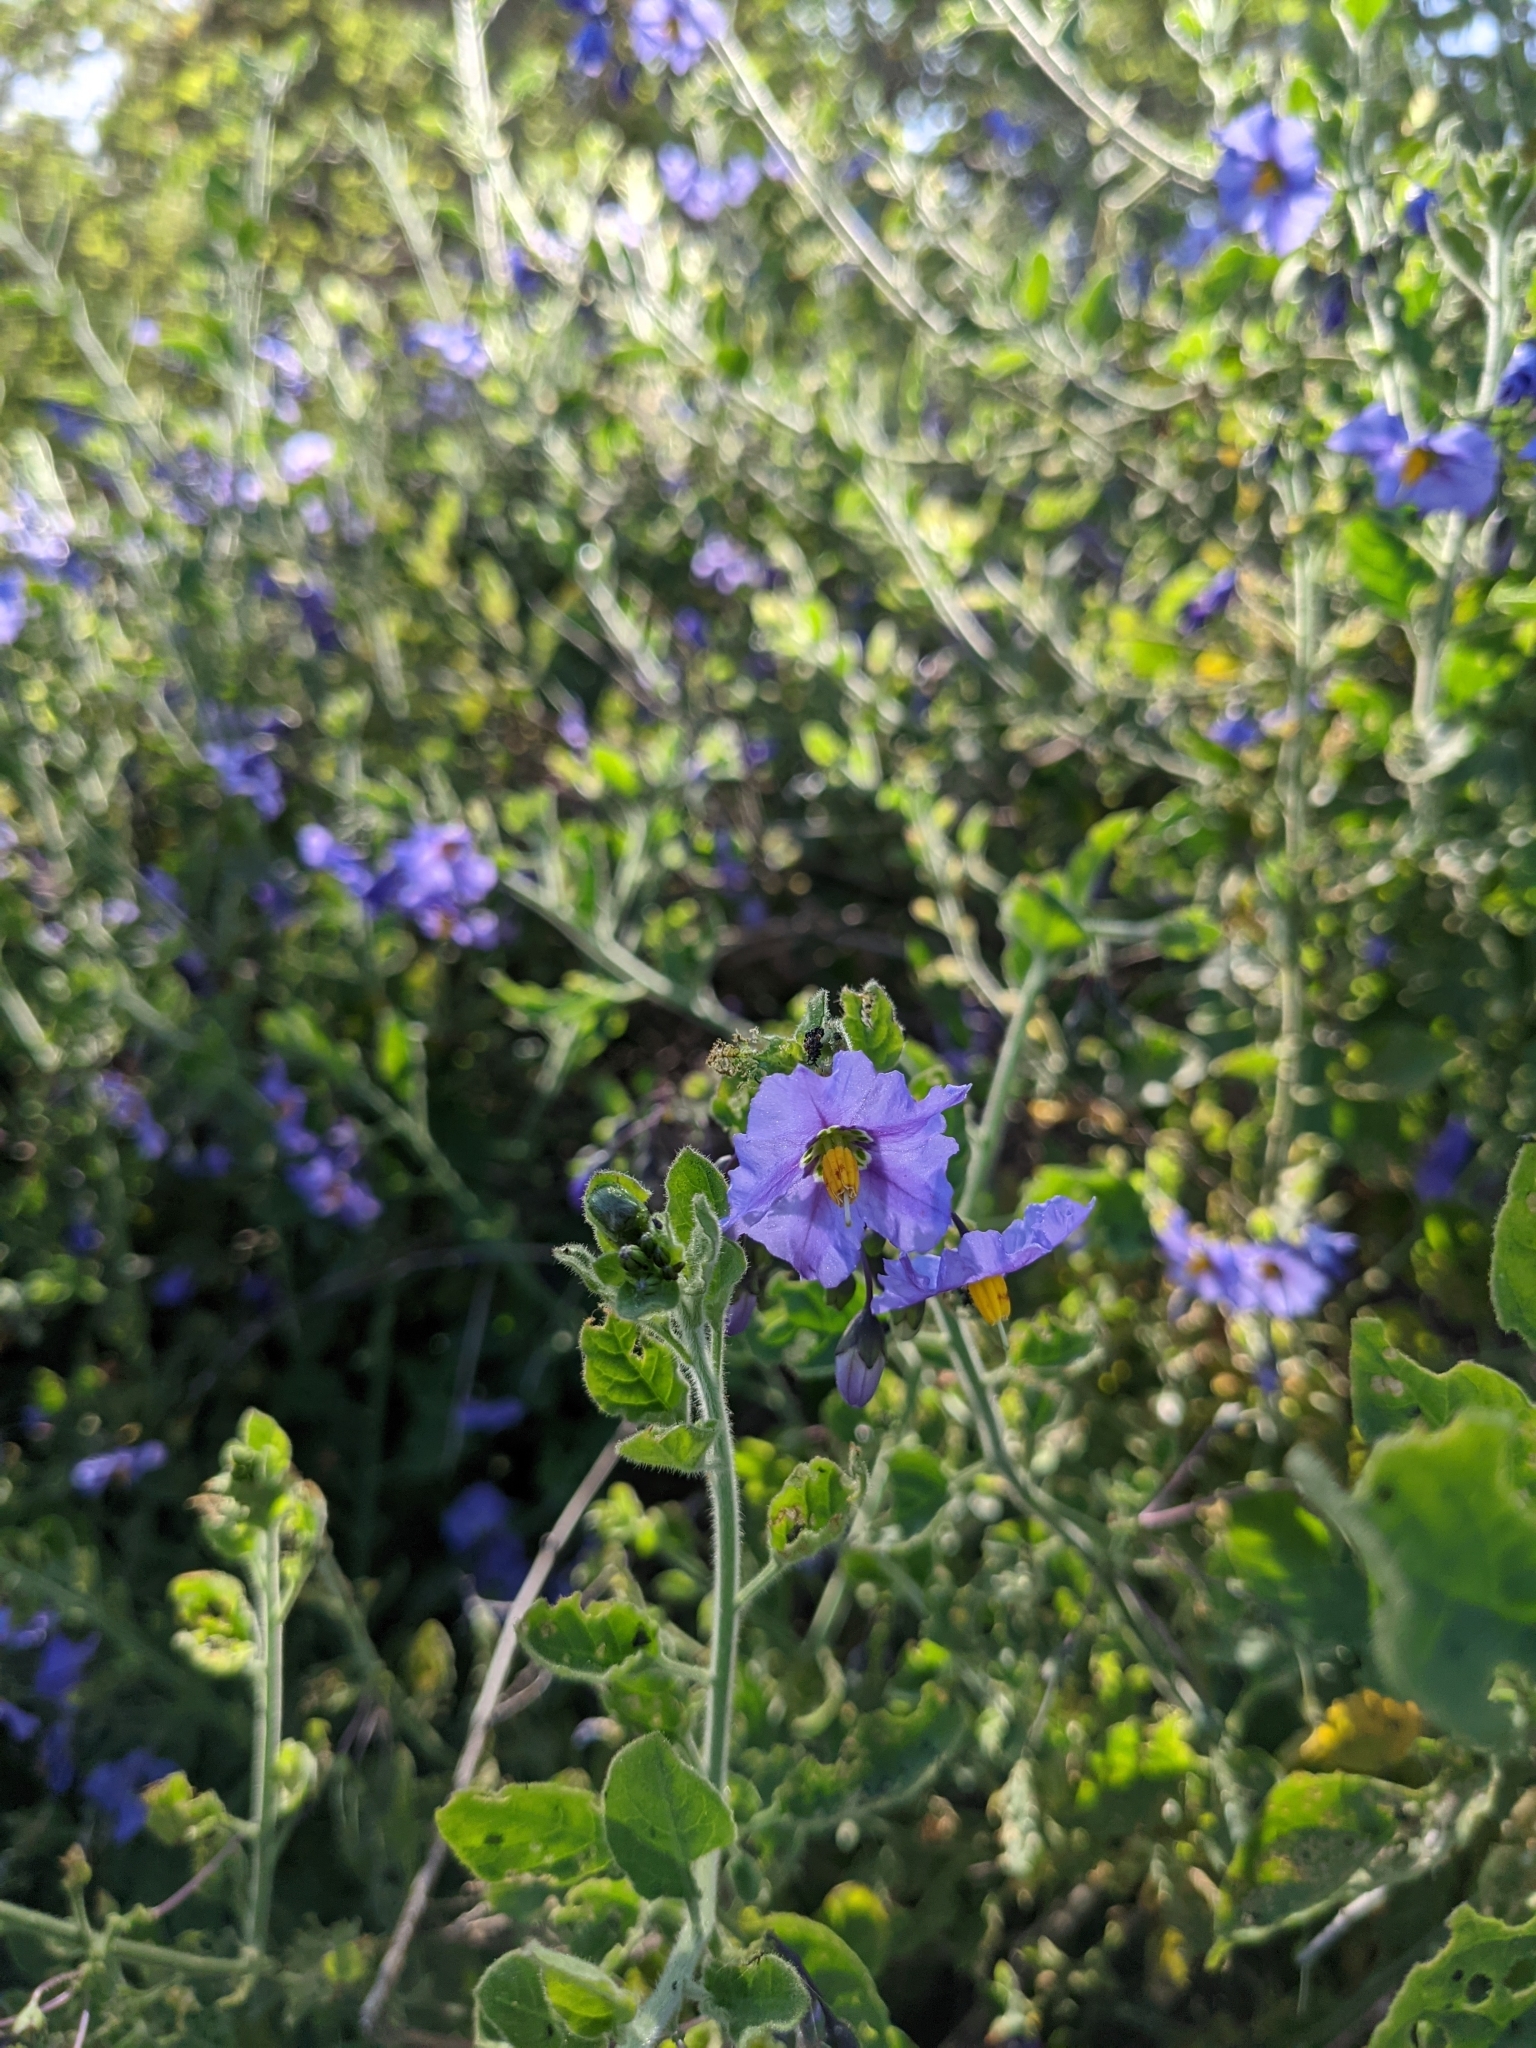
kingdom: Plantae
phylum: Tracheophyta
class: Magnoliopsida
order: Solanales
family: Solanaceae
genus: Solanum
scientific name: Solanum umbelliferum
